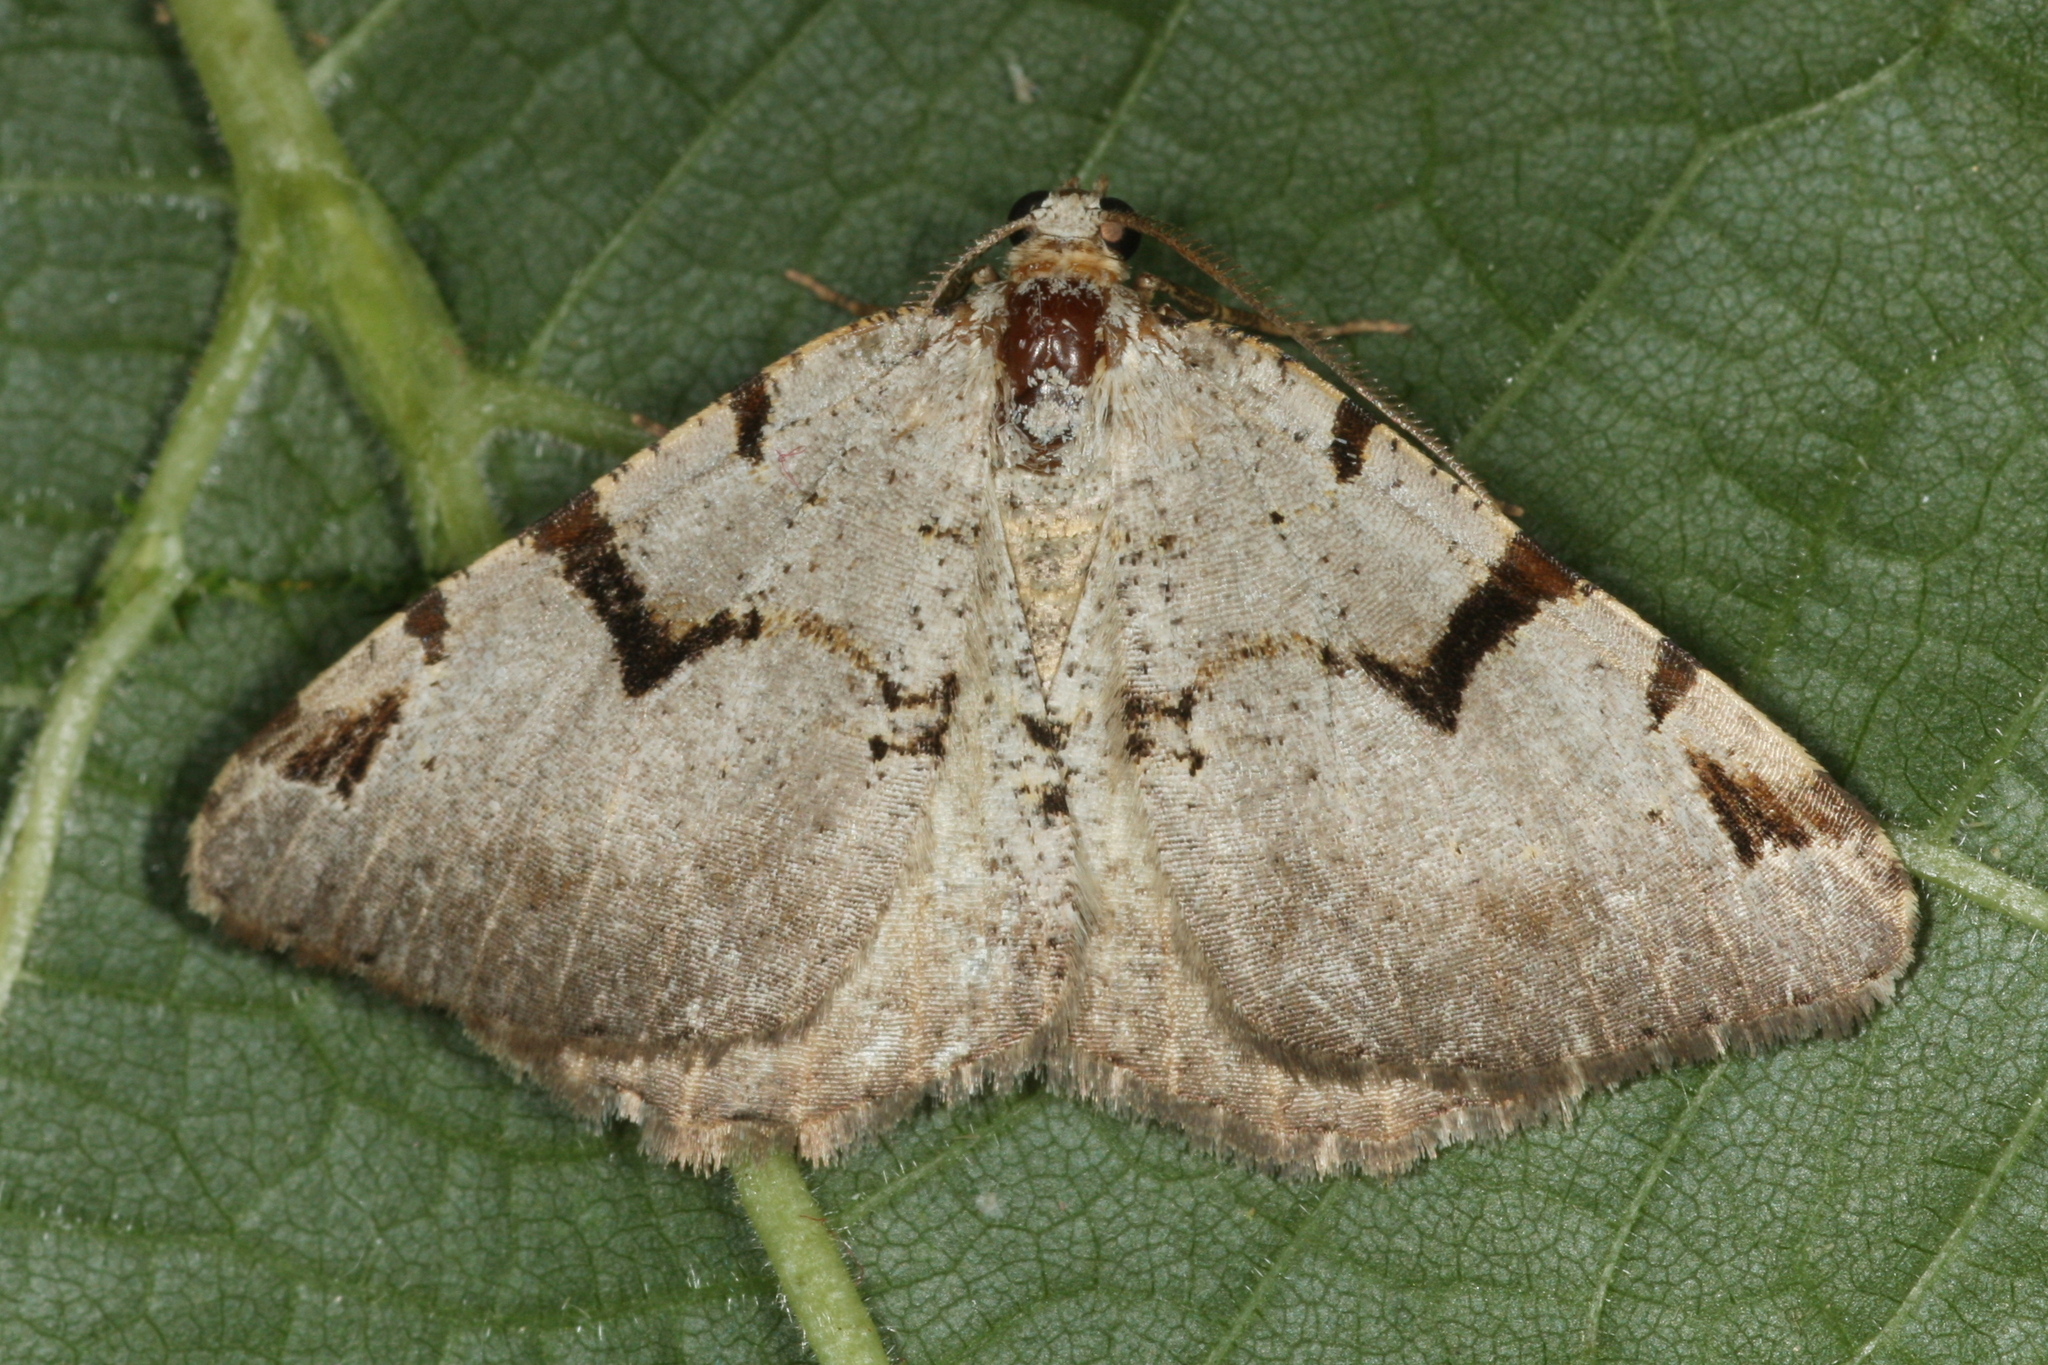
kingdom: Animalia
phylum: Arthropoda
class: Insecta
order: Lepidoptera
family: Geometridae
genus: Macaria
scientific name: Macaria wauaria
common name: V-moth
